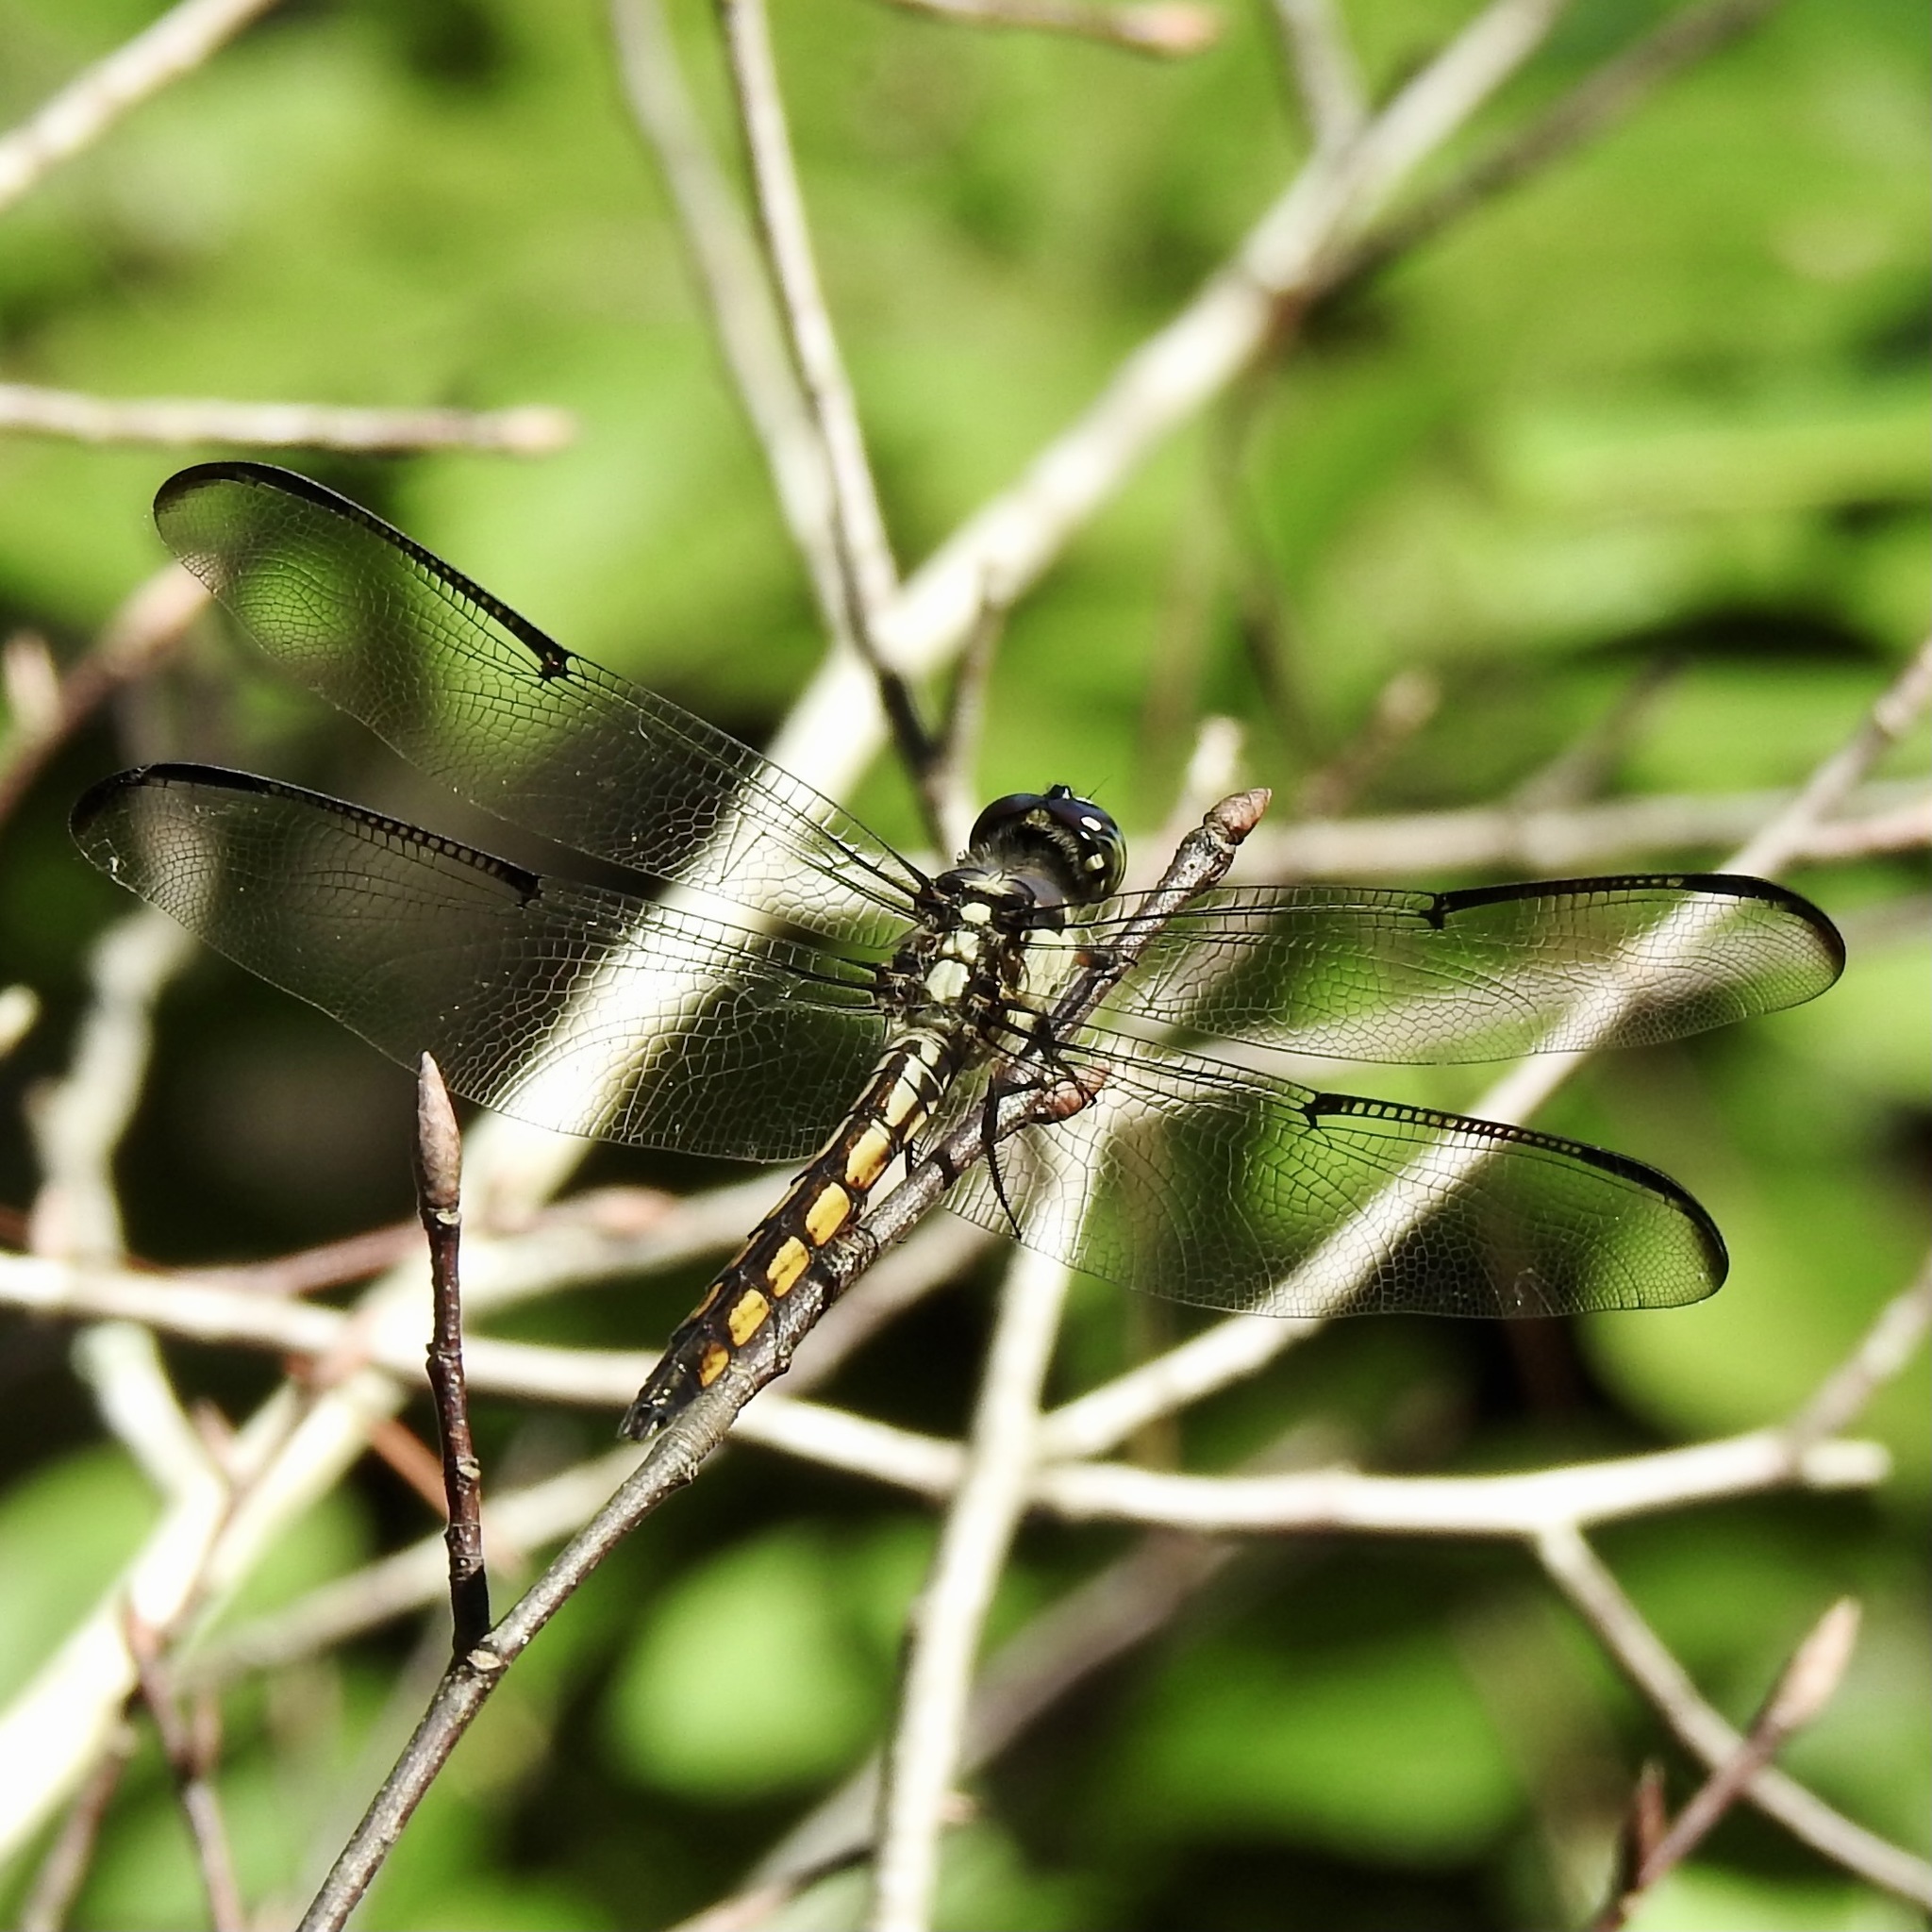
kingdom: Animalia
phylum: Arthropoda
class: Insecta
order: Odonata
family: Libellulidae
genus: Libellula
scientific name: Libellula vibrans
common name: Great blue skimmer
